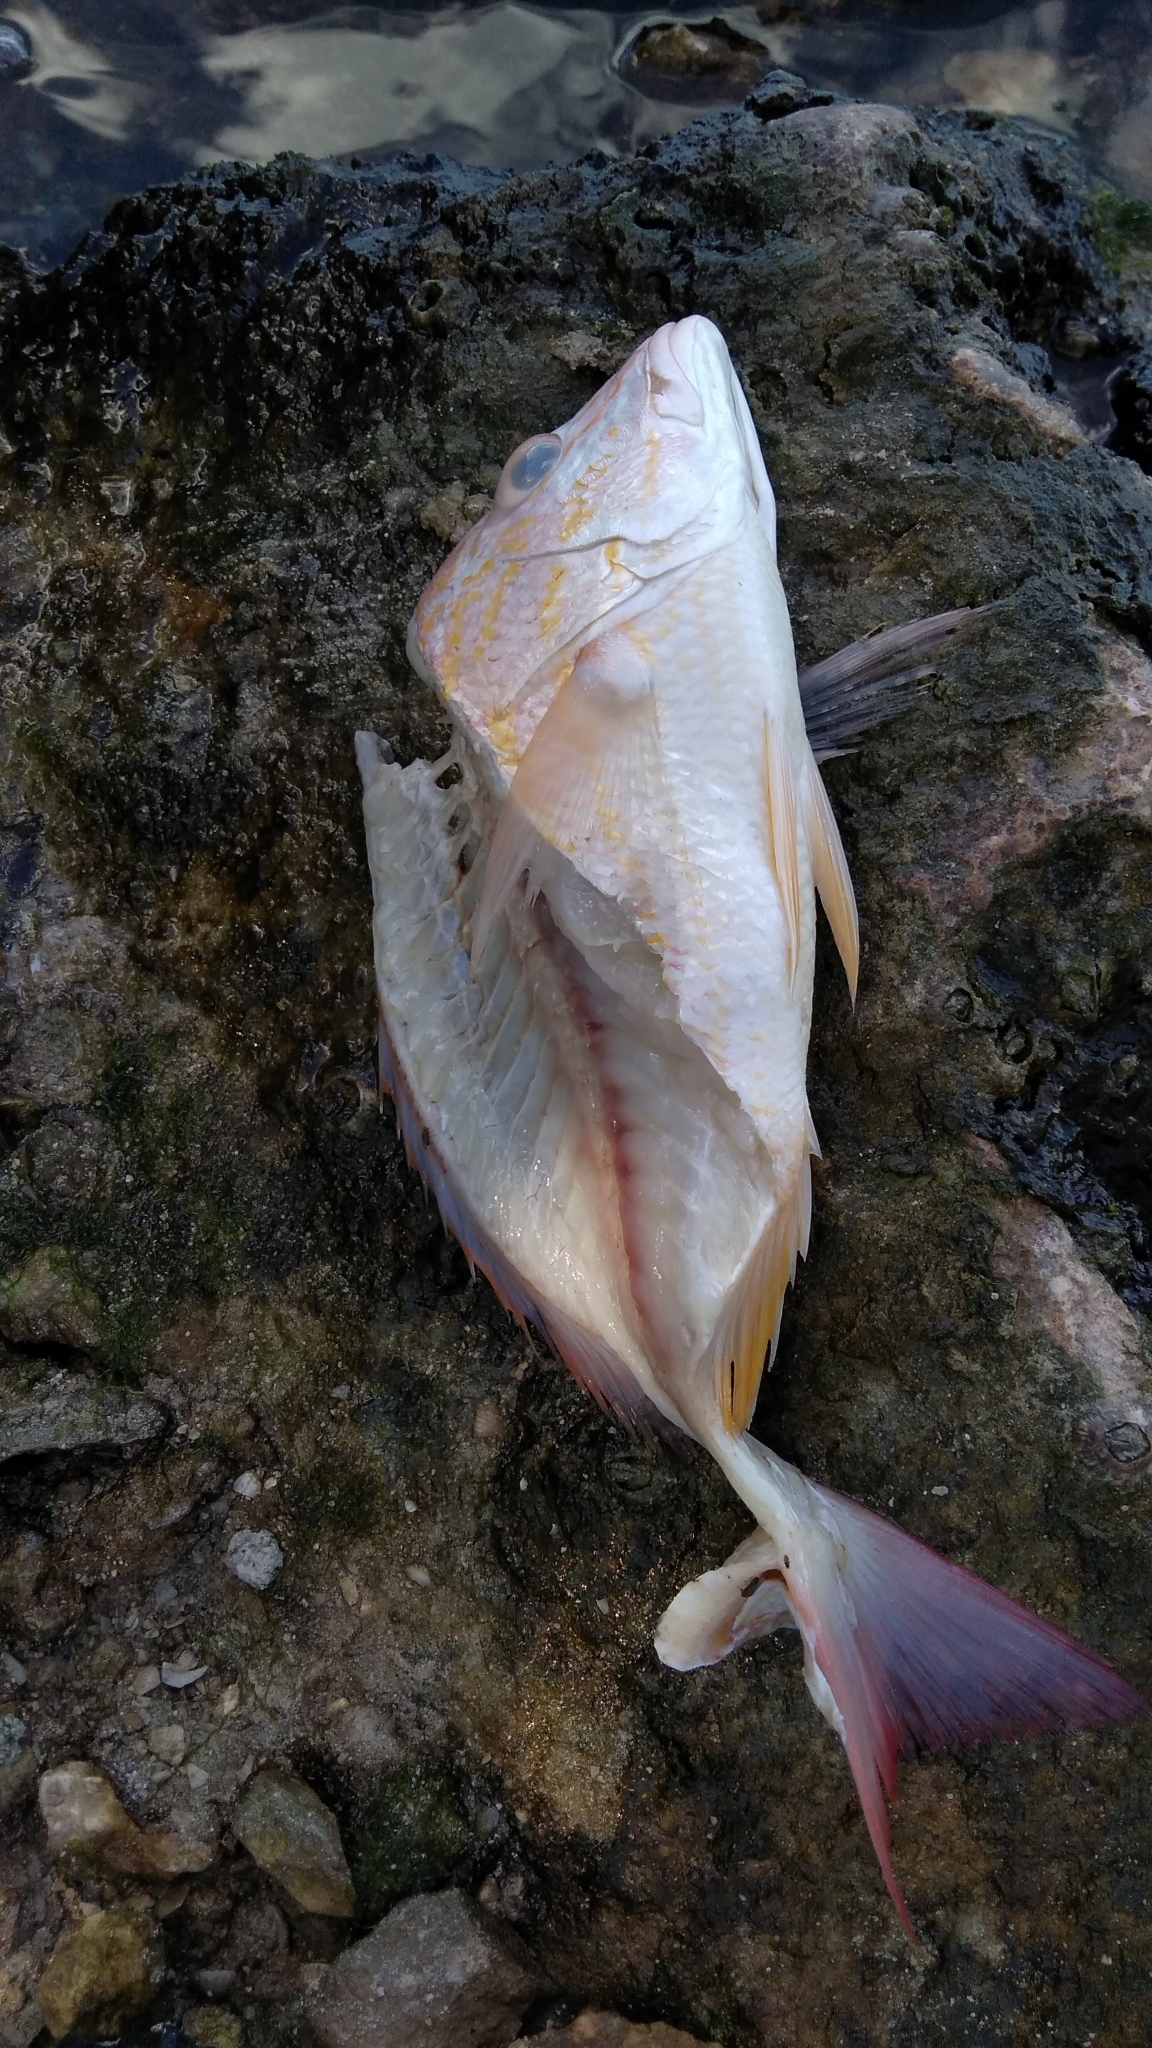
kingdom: Animalia
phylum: Chordata
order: Perciformes
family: Lutjanidae
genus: Lutjanus
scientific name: Lutjanus synagris
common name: Lane snapper
